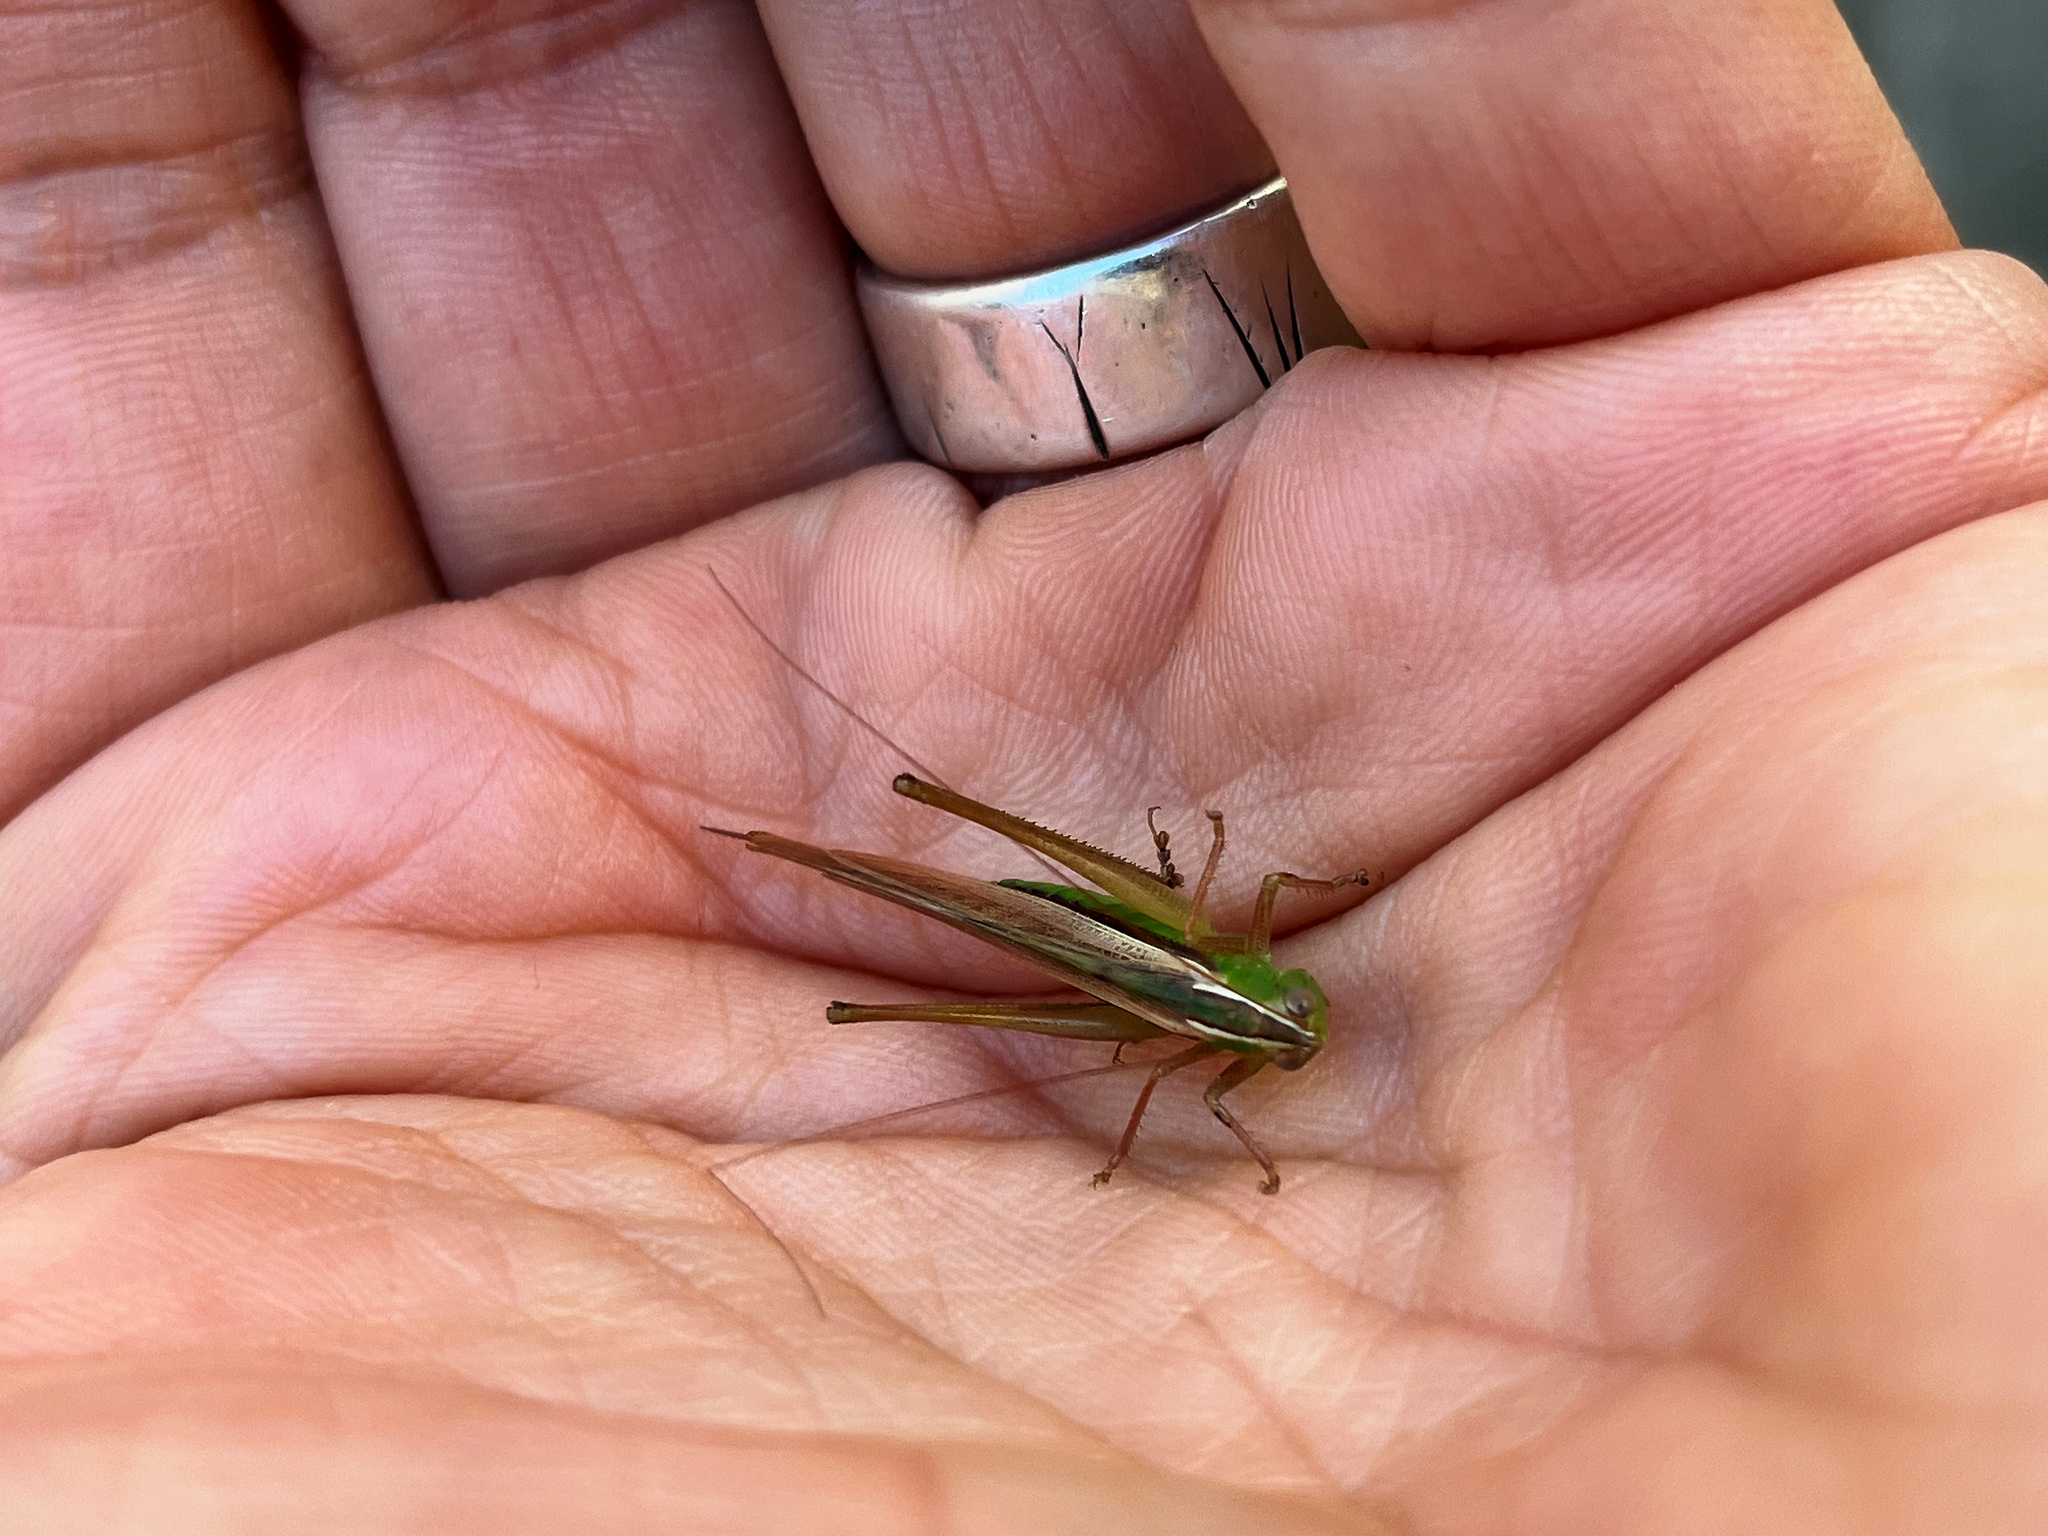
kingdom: Animalia
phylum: Arthropoda
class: Insecta
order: Orthoptera
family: Tettigoniidae
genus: Conocephalus
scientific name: Conocephalus albescens
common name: Whitish meadow katydid
